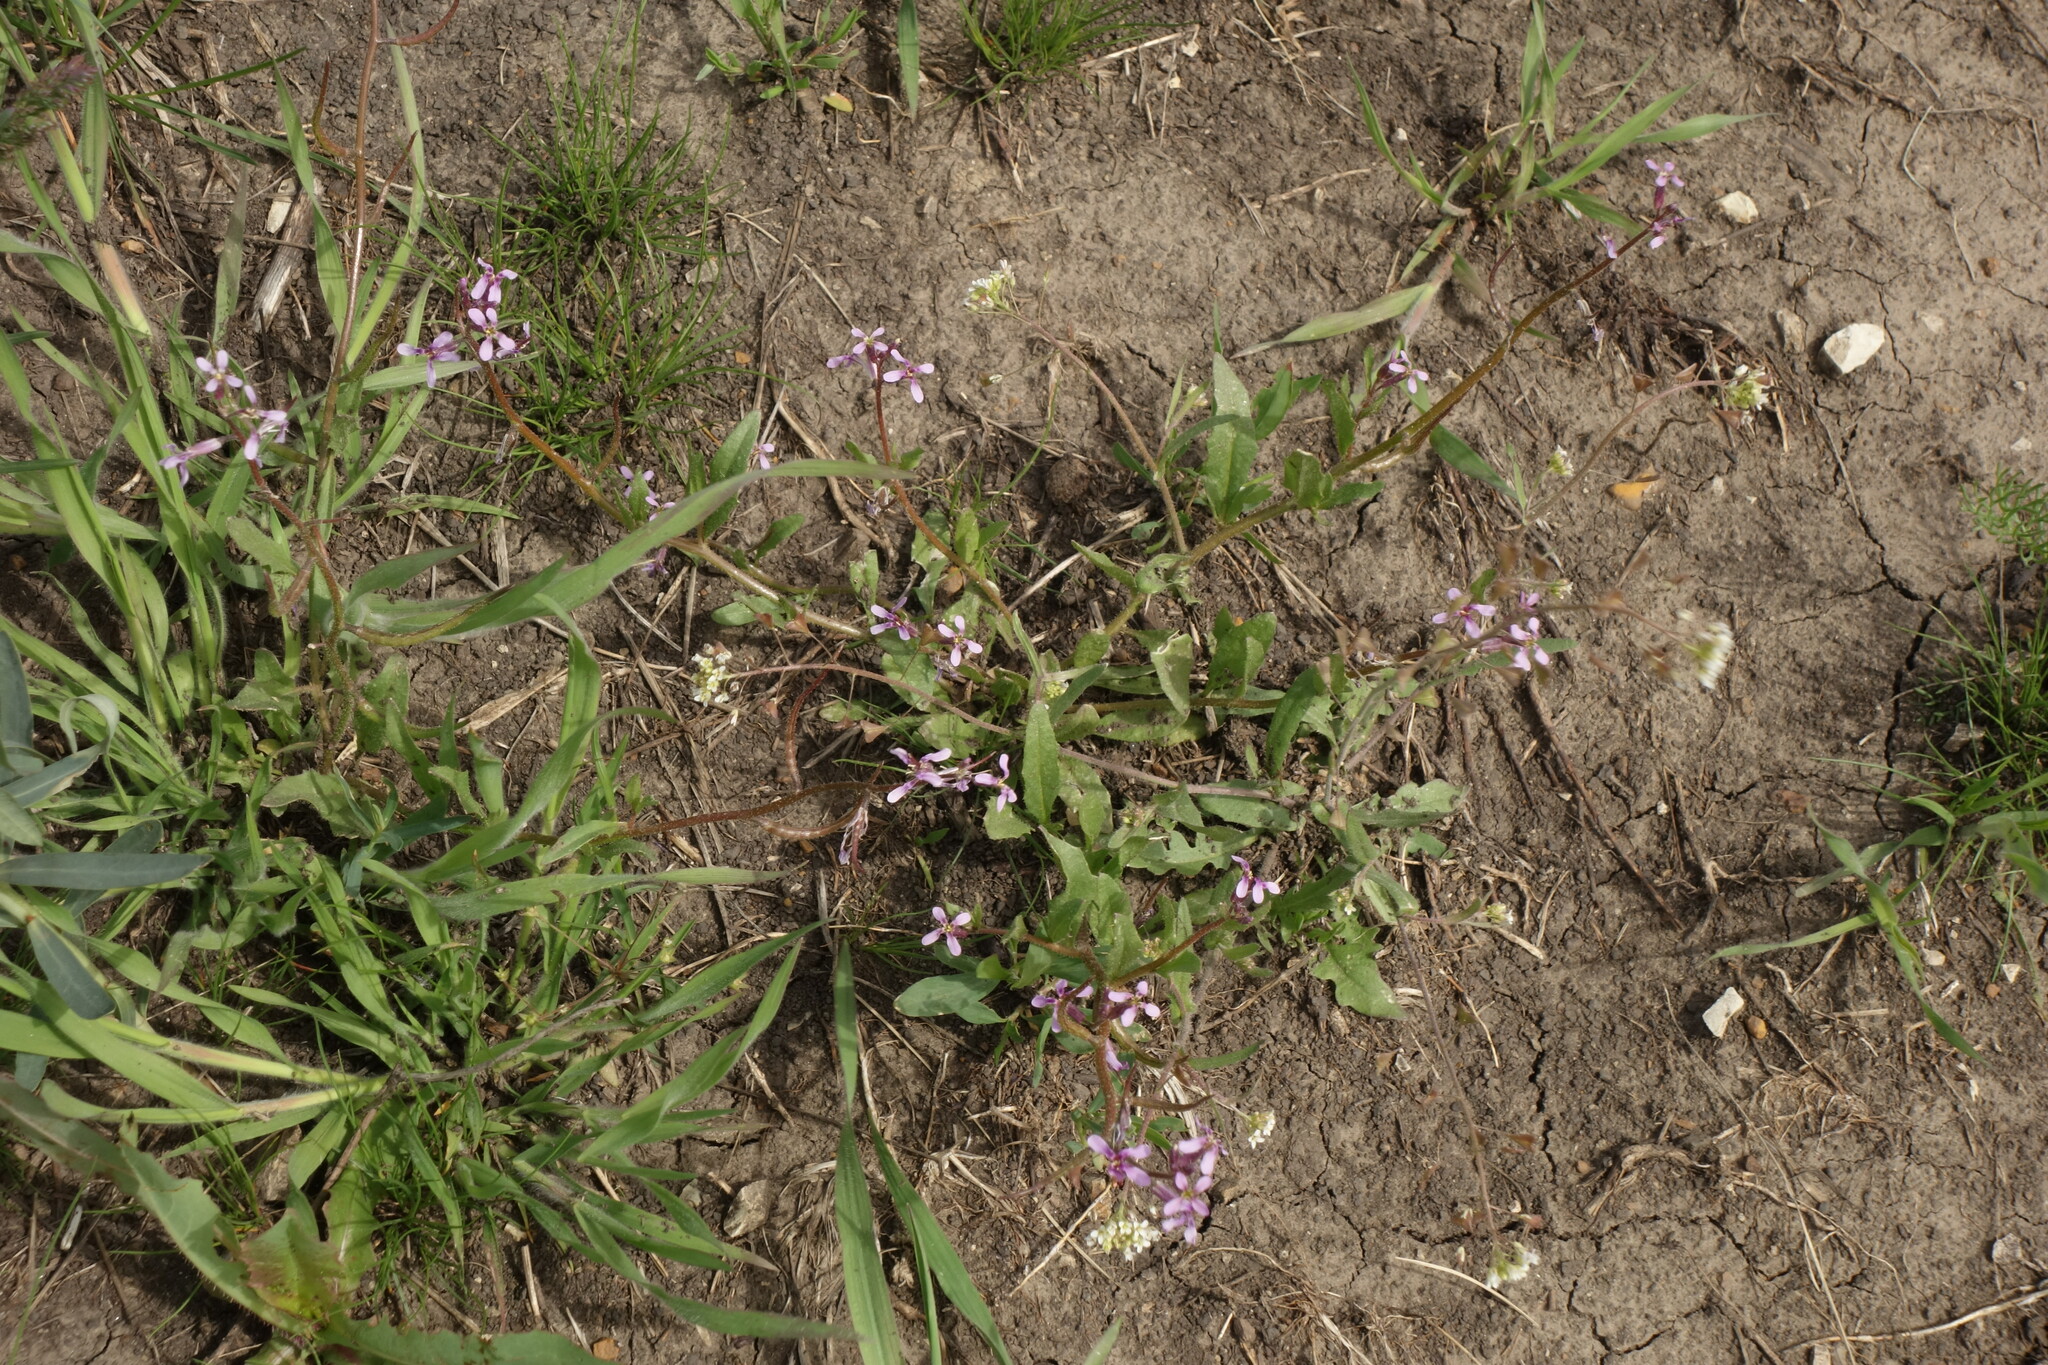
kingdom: Plantae
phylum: Tracheophyta
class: Magnoliopsida
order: Brassicales
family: Brassicaceae
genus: Chorispora
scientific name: Chorispora tenella
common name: Crossflower
